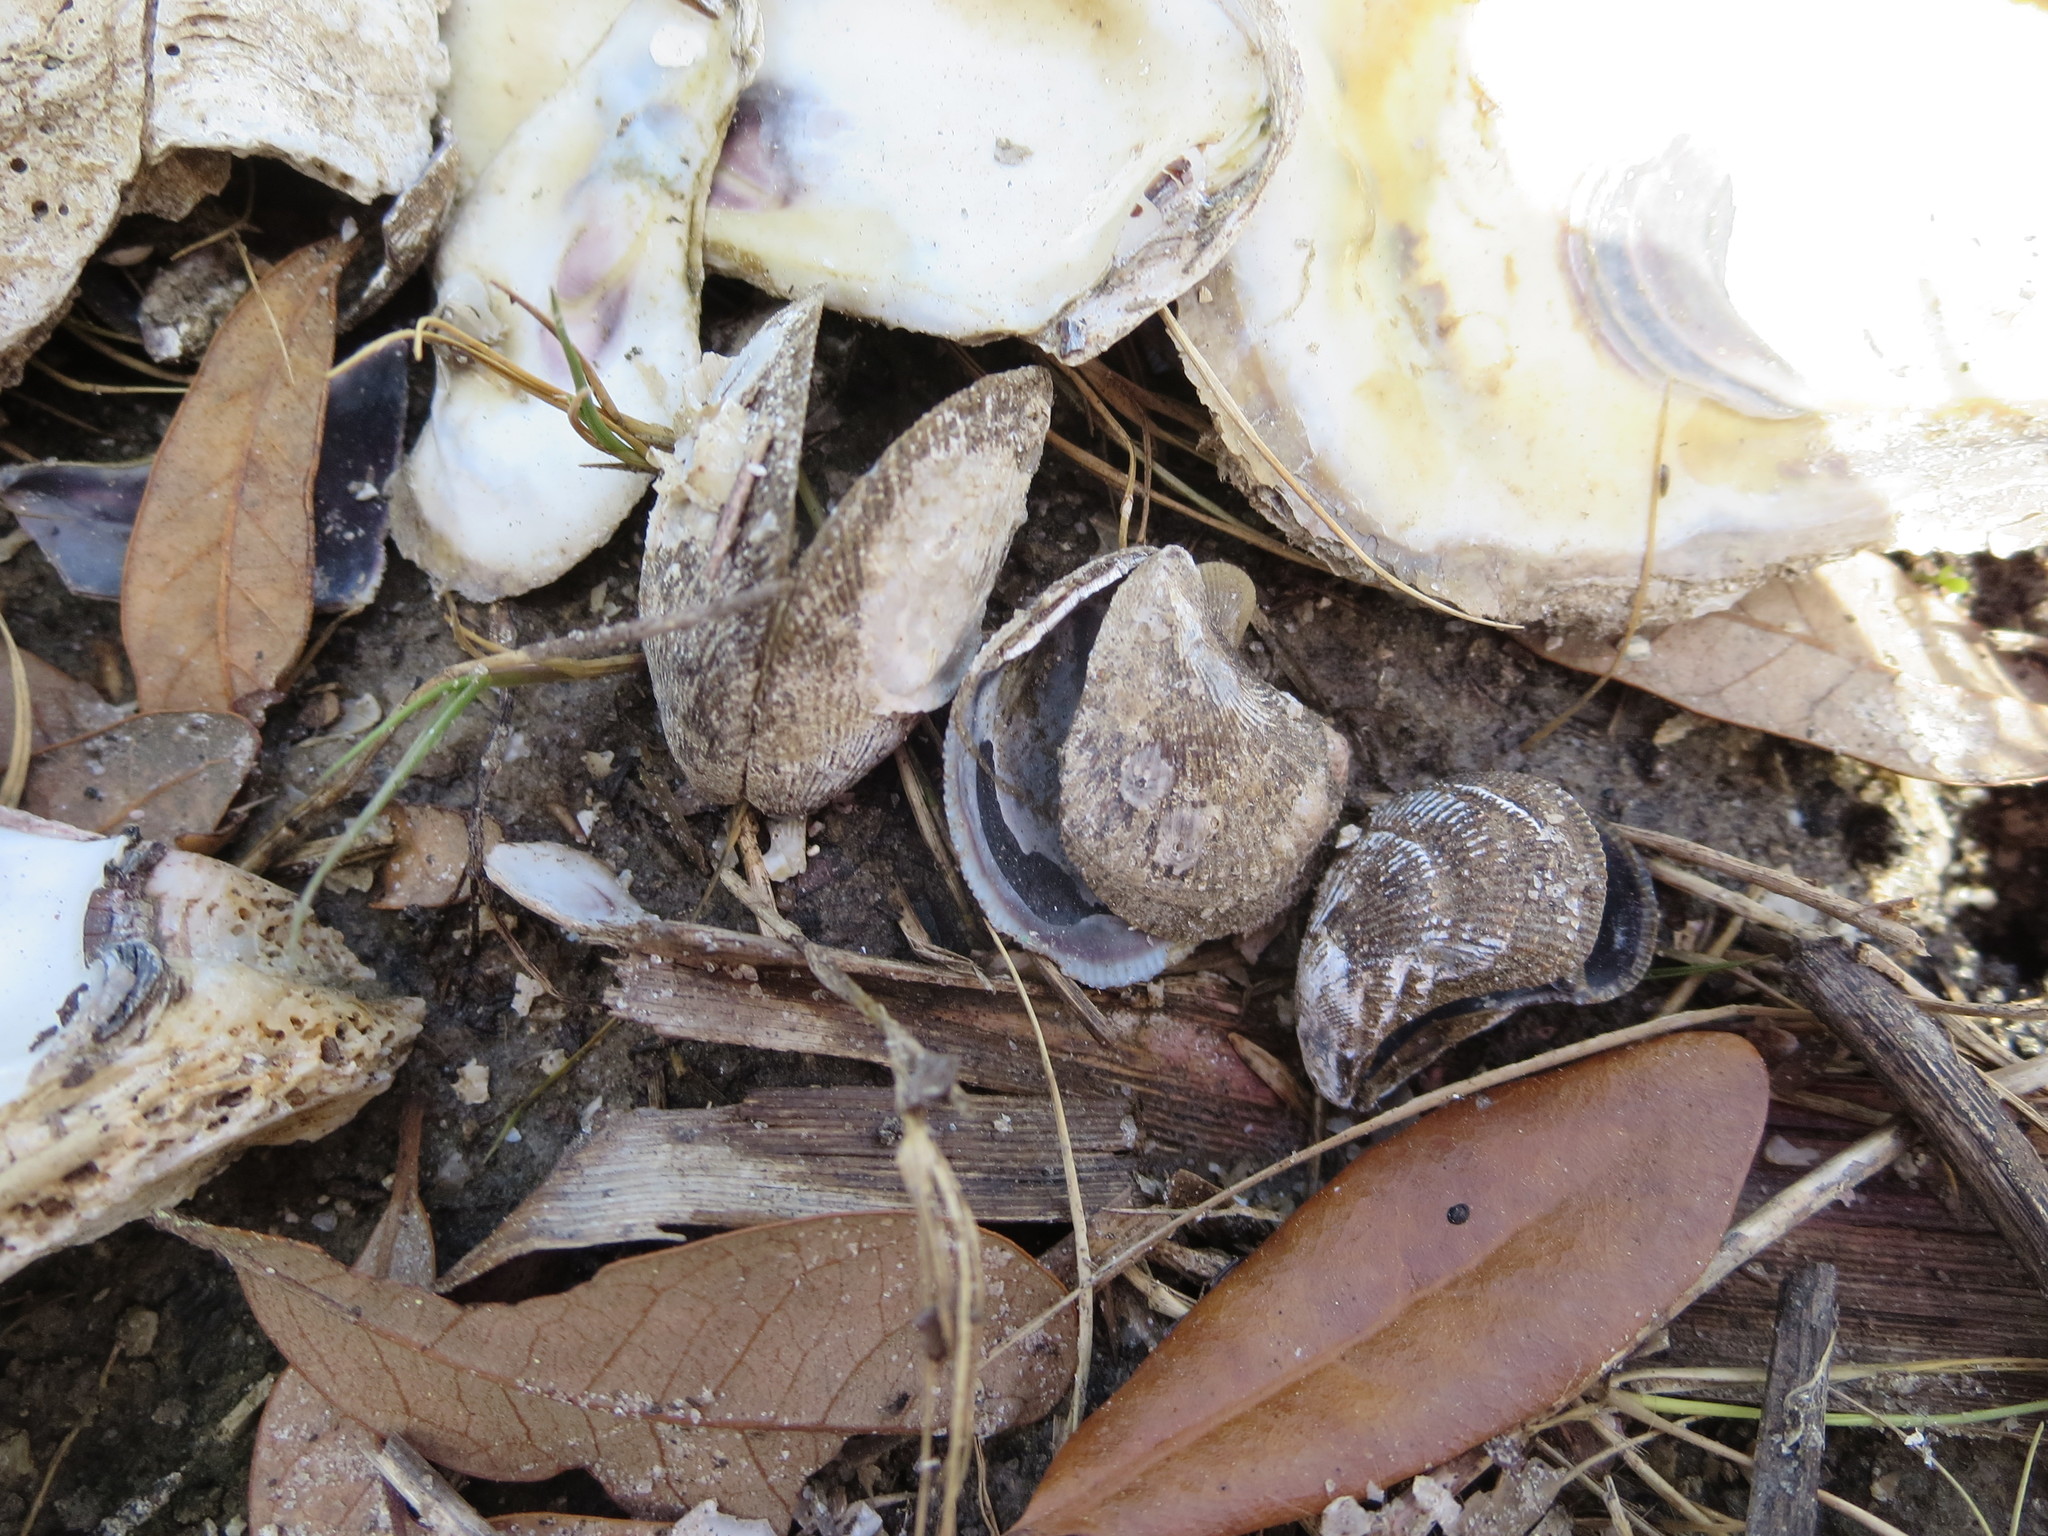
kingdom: Animalia
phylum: Mollusca
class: Bivalvia
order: Mytilida
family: Mytilidae
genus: Ischadium
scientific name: Ischadium recurvum
